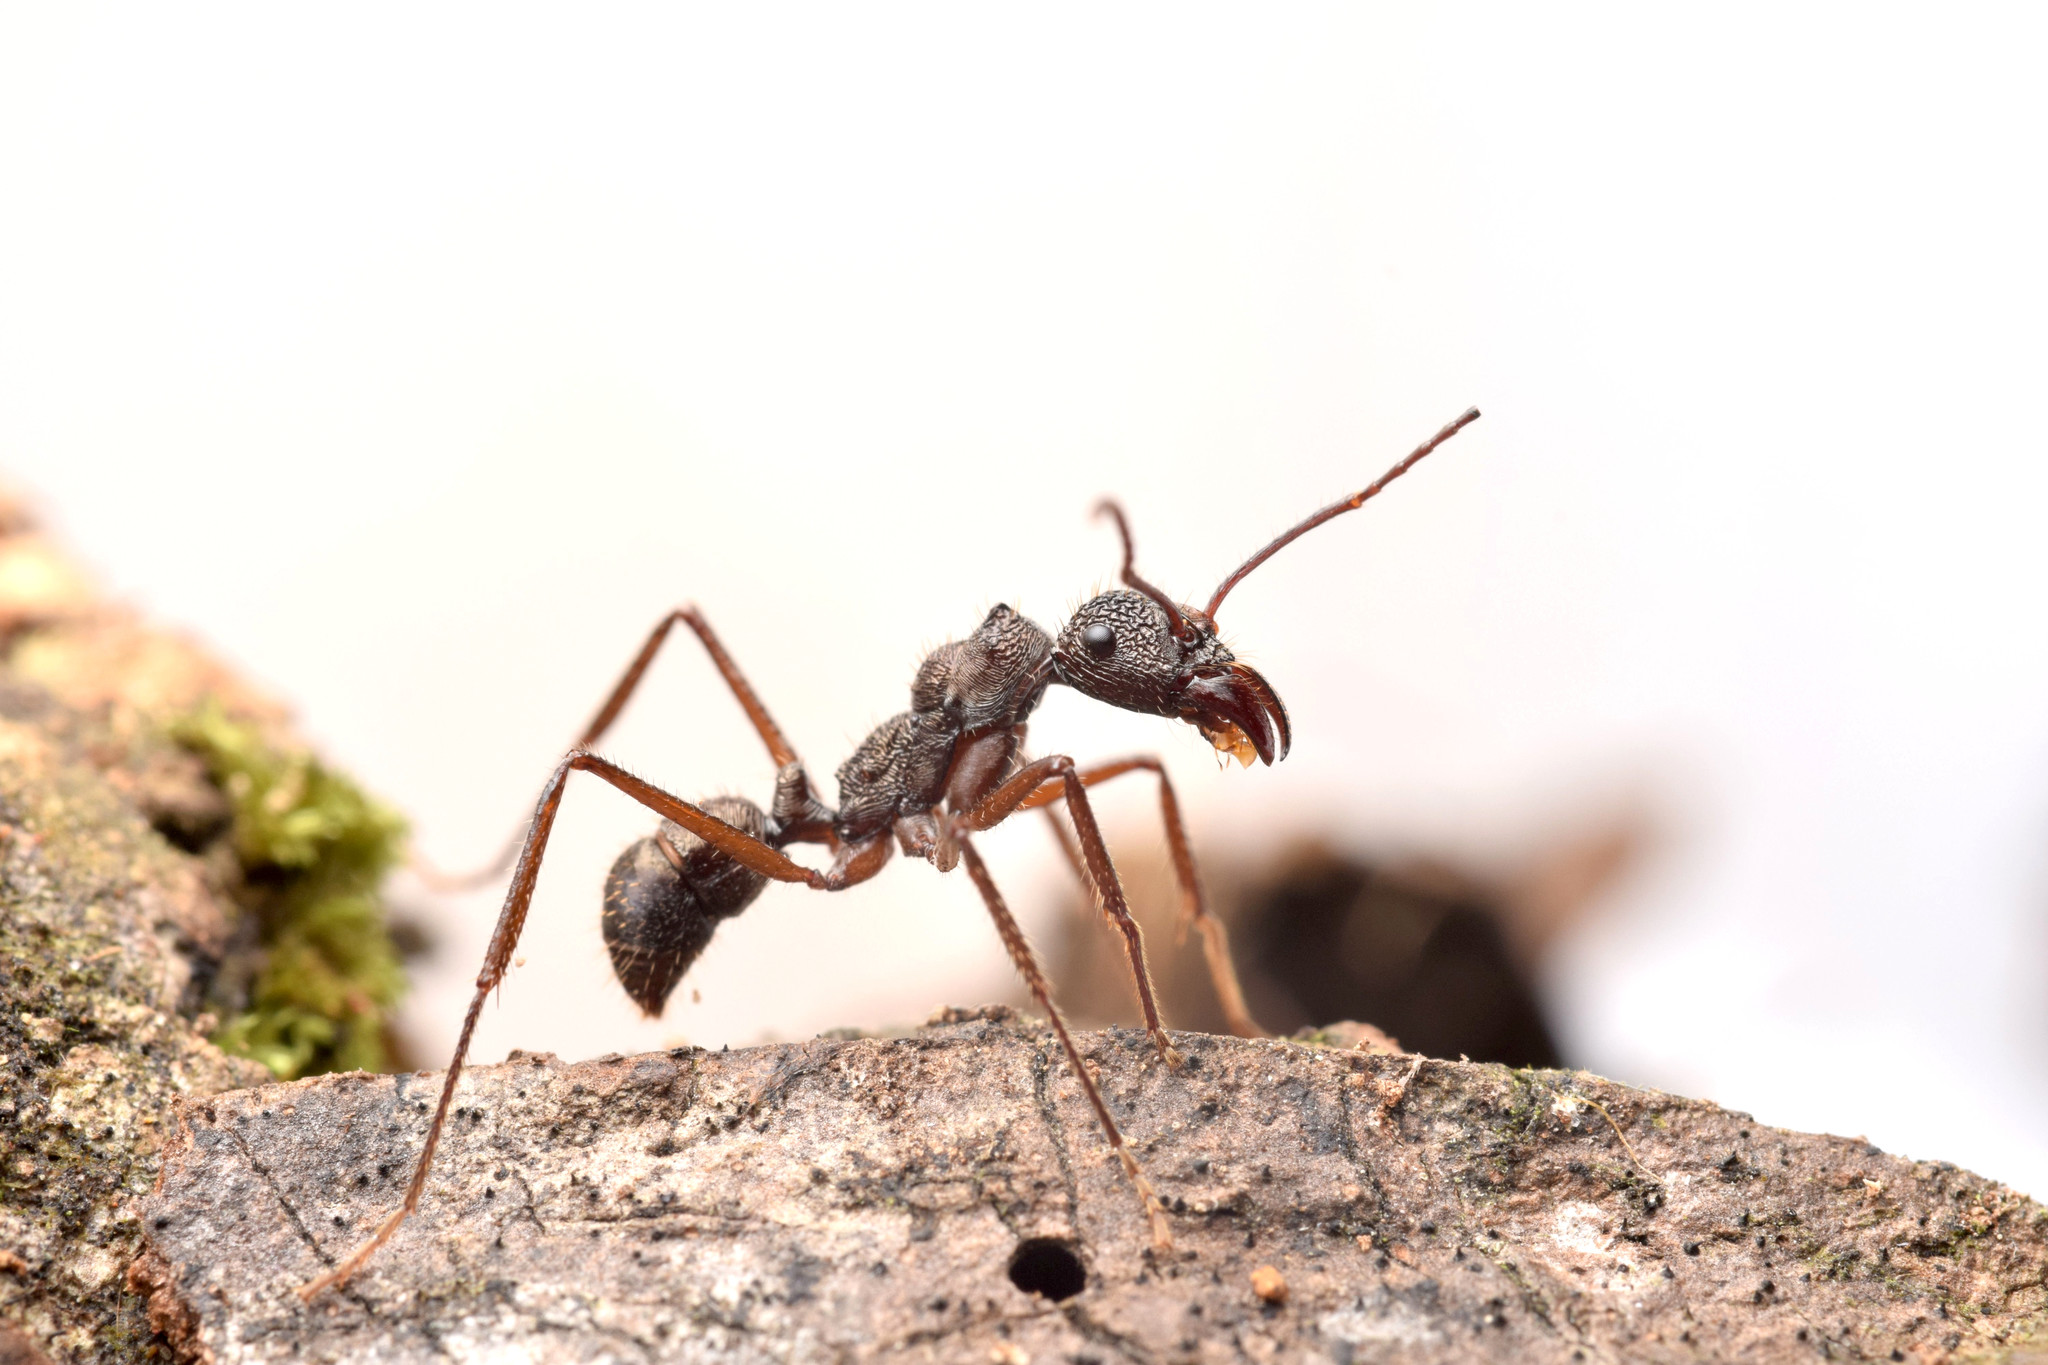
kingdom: Animalia
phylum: Arthropoda
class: Insecta
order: Hymenoptera
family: Formicidae
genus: Ectatomma
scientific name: Ectatomma goninion
